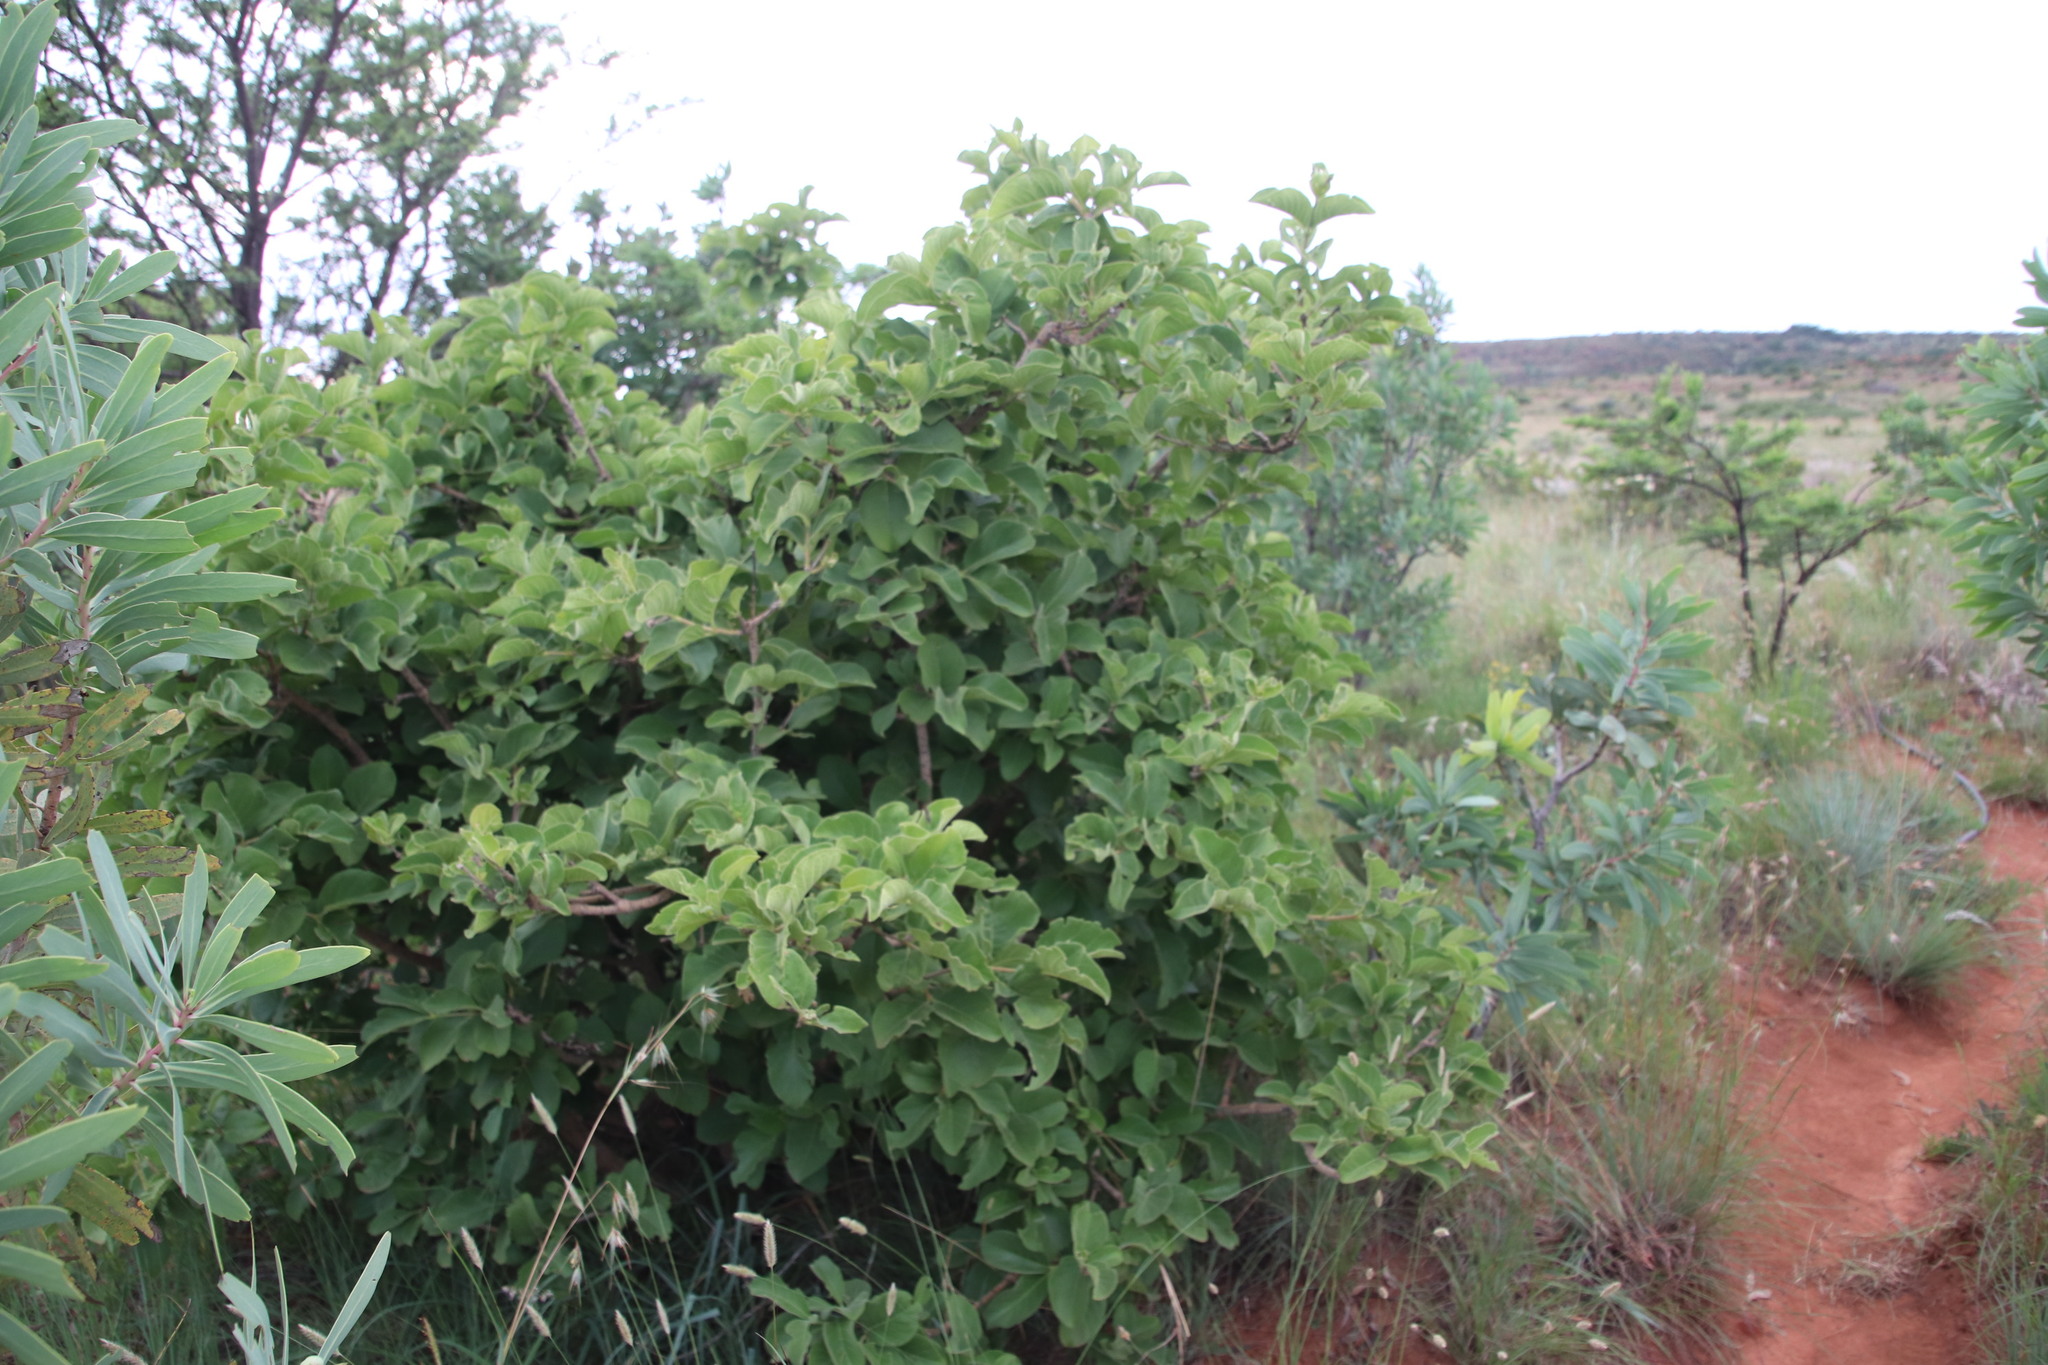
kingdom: Plantae
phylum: Tracheophyta
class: Magnoliopsida
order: Gentianales
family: Rubiaceae
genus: Vangueria
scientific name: Vangueria infausta
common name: Medlar
